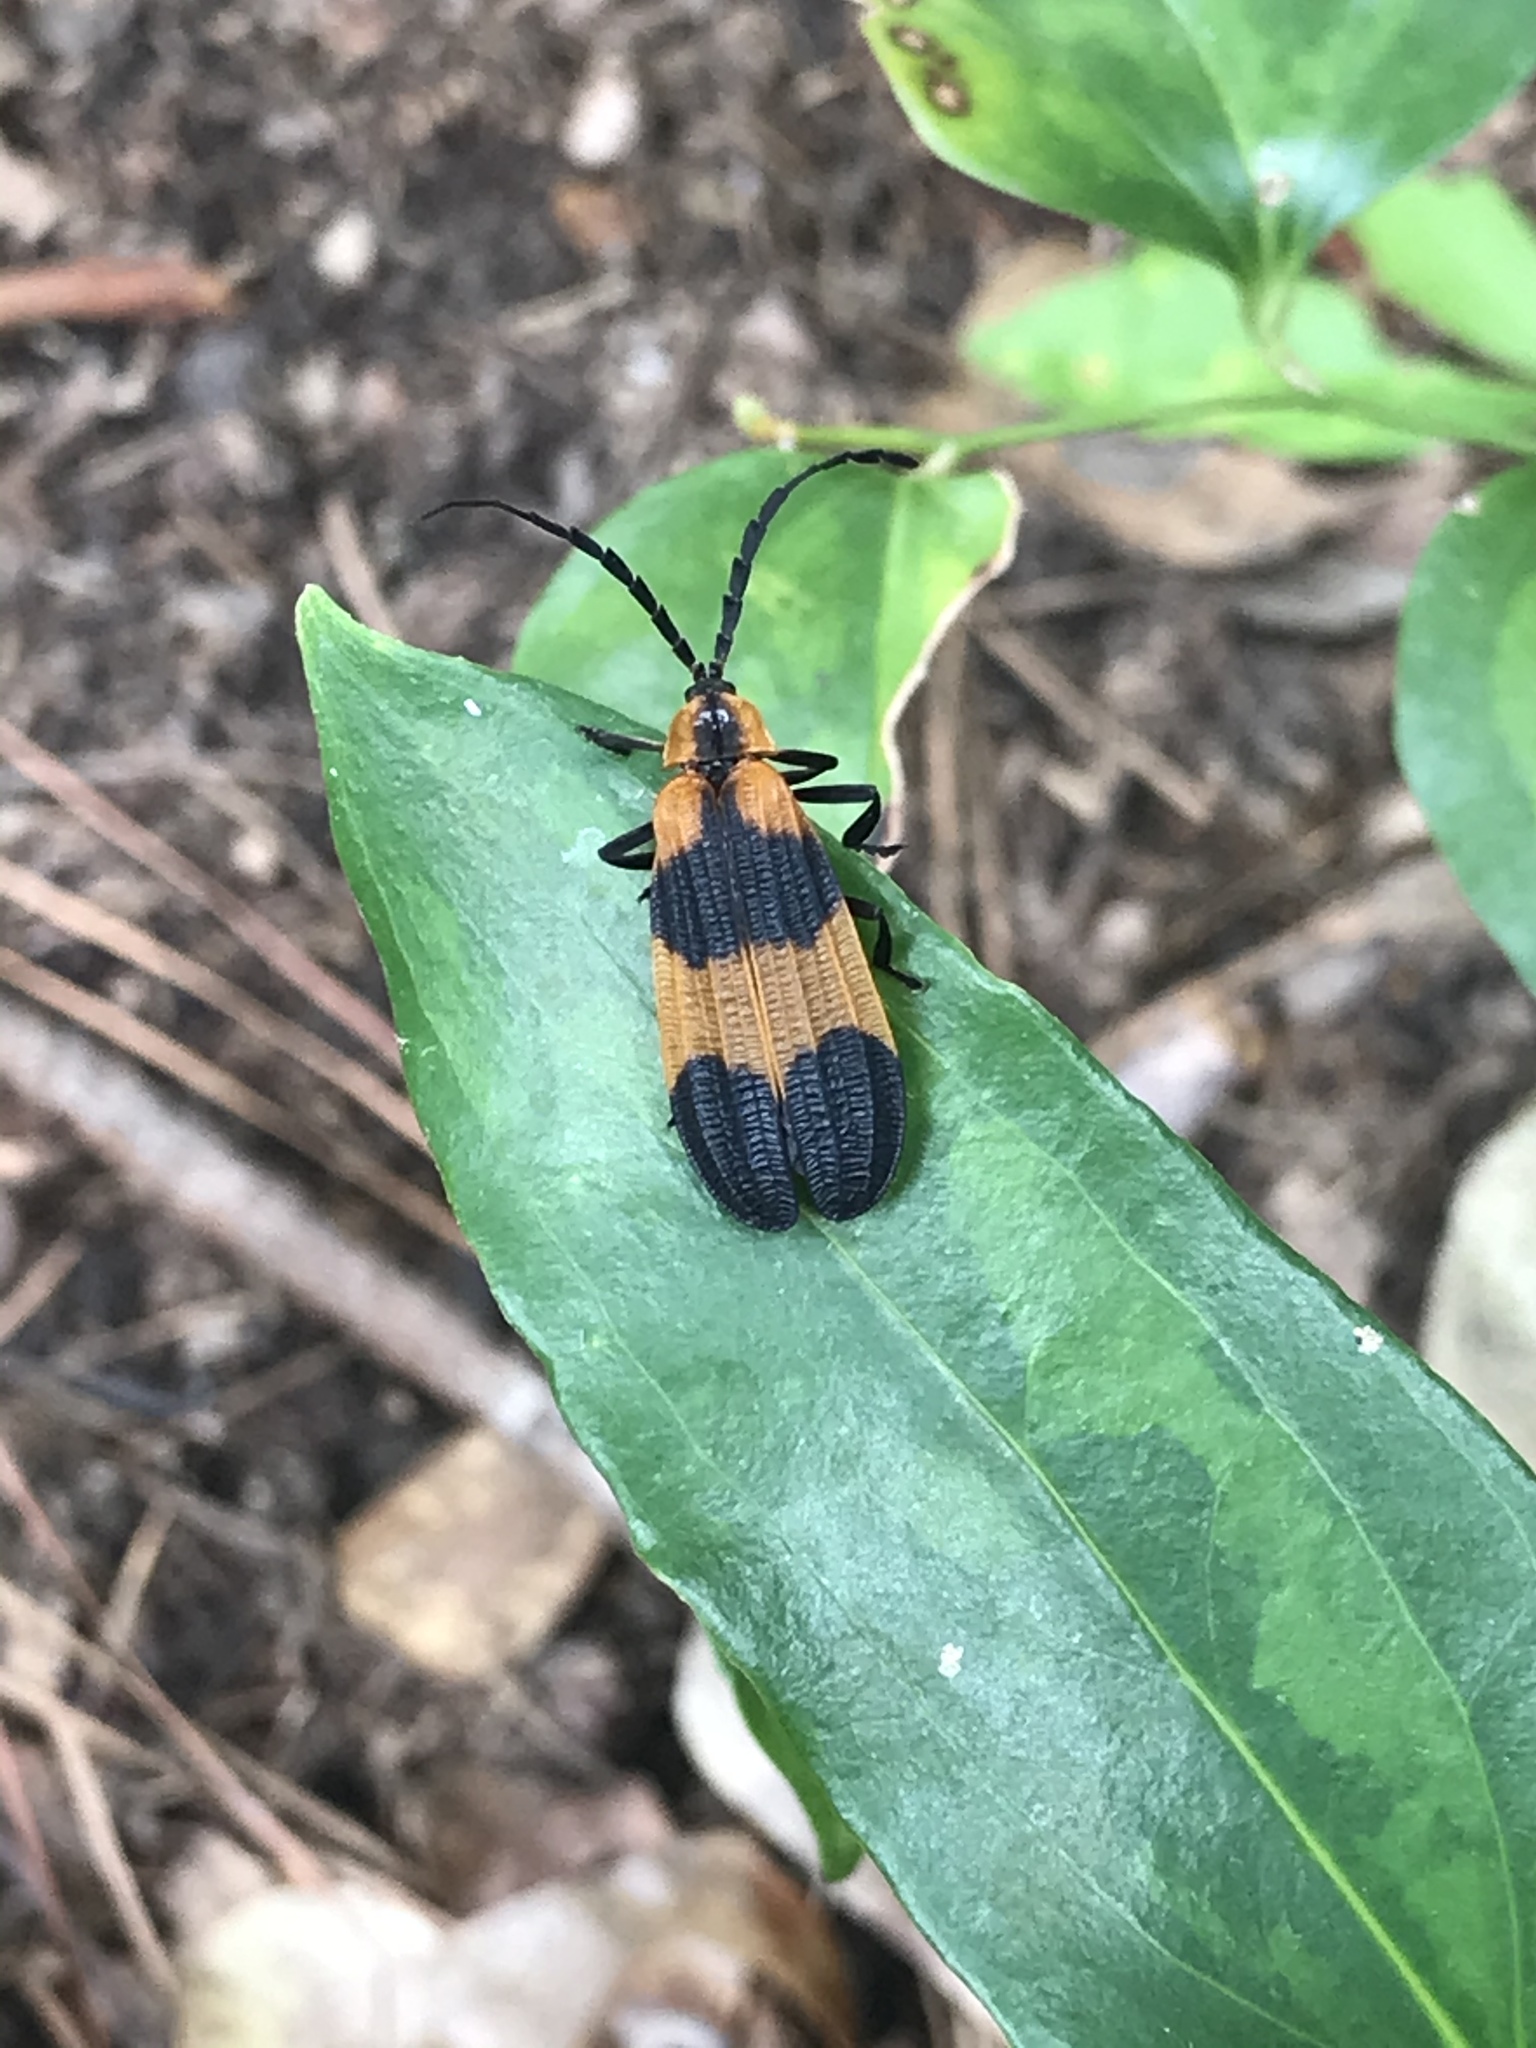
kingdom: Animalia
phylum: Arthropoda
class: Insecta
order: Coleoptera
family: Lycidae
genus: Calopteron
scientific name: Calopteron reticulatum
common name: Banded net-winged beetle
